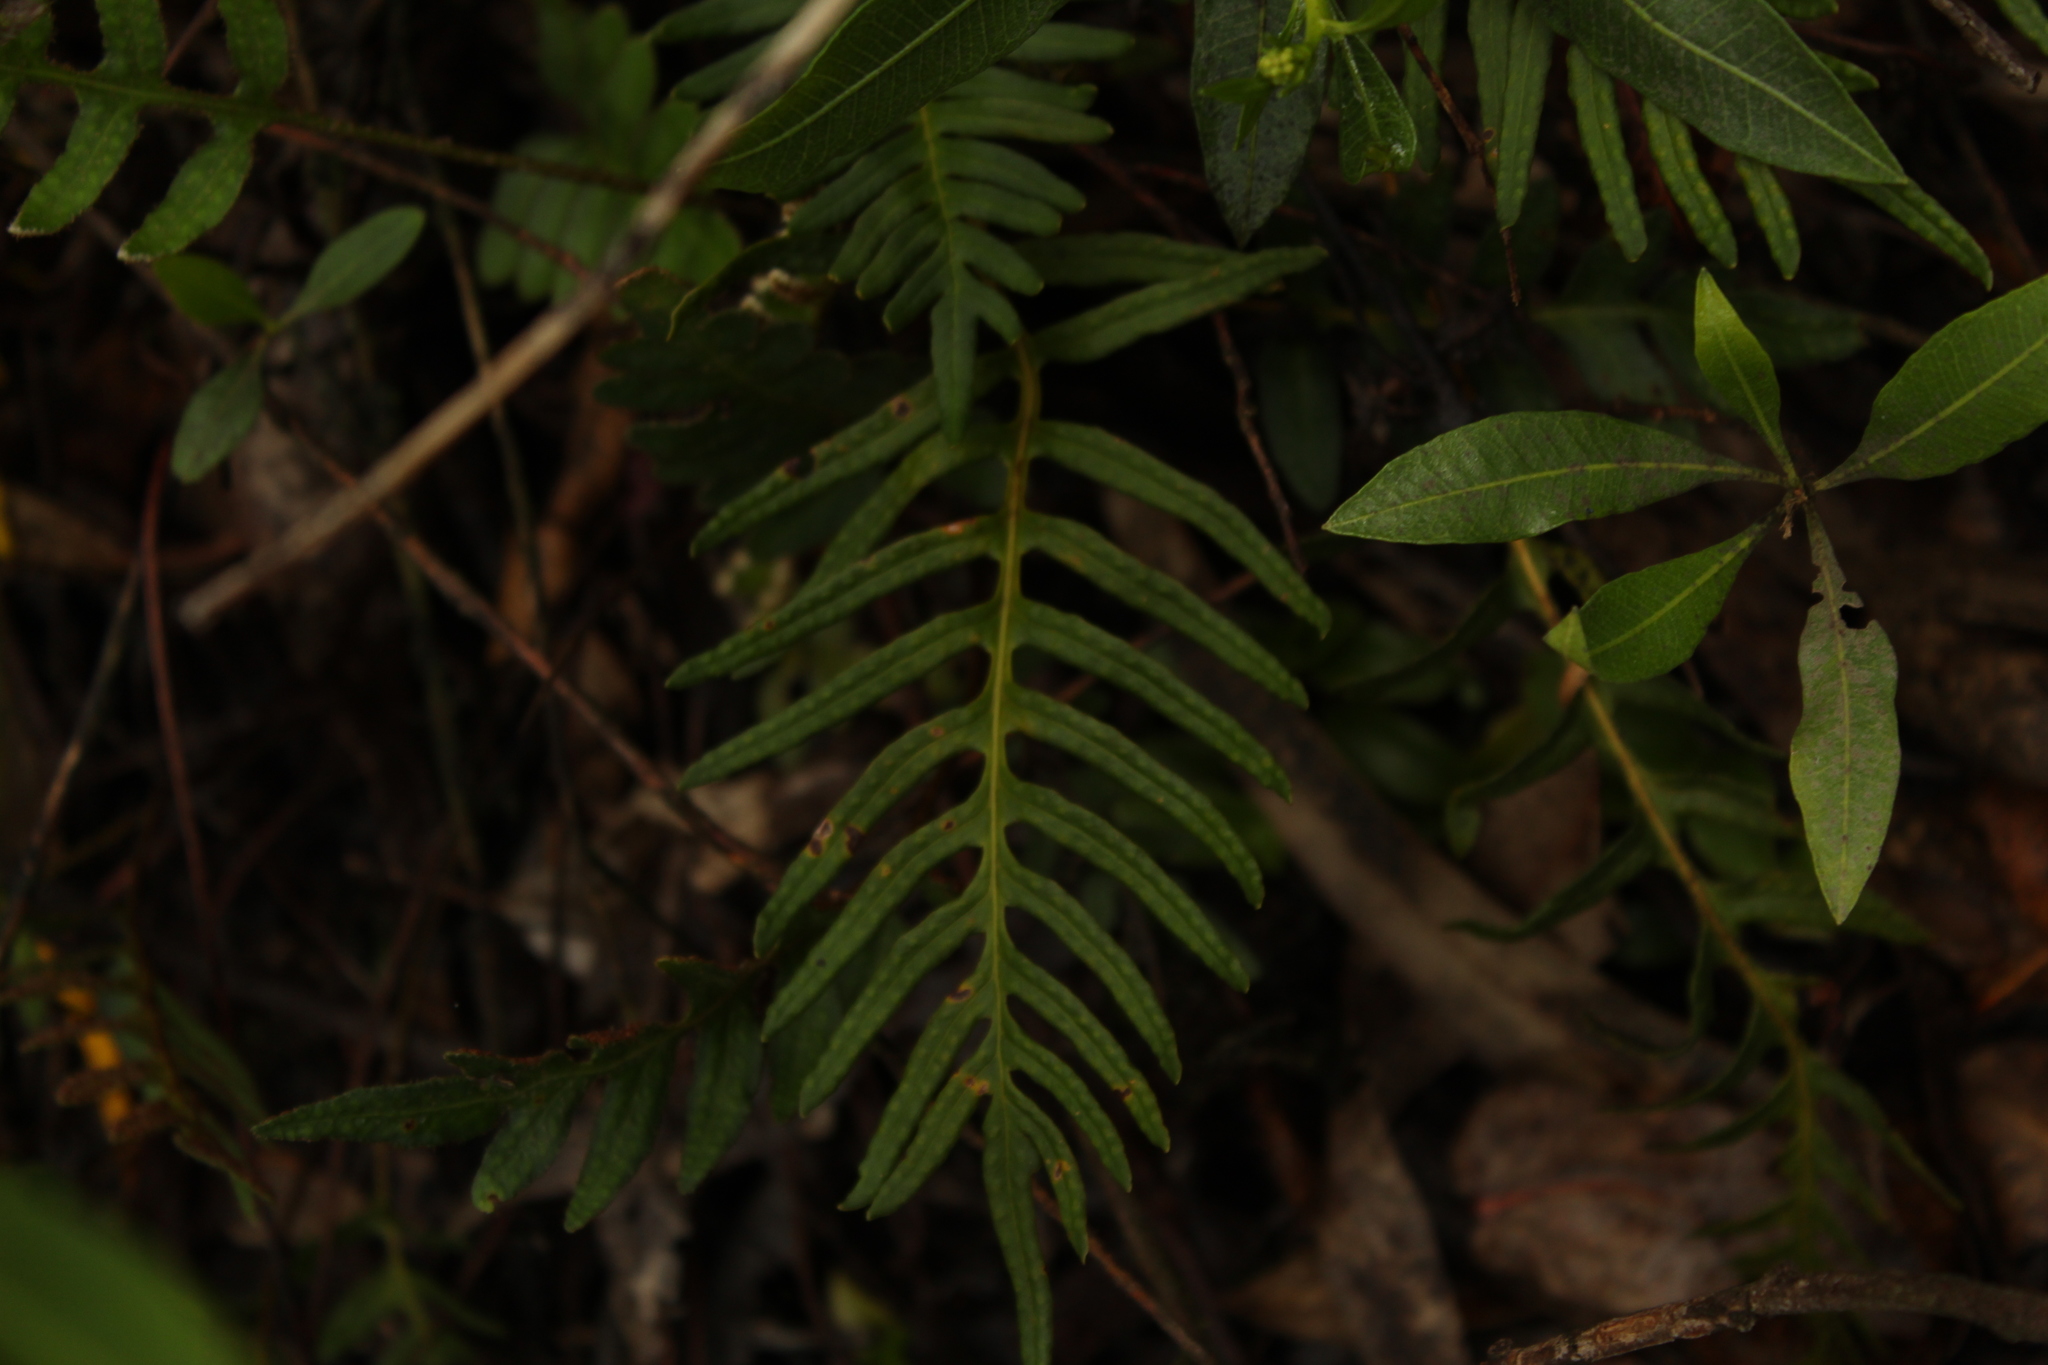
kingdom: Plantae
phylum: Tracheophyta
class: Polypodiopsida
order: Polypodiales
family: Polypodiaceae
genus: Pleopeltis
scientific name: Pleopeltis orientalis
